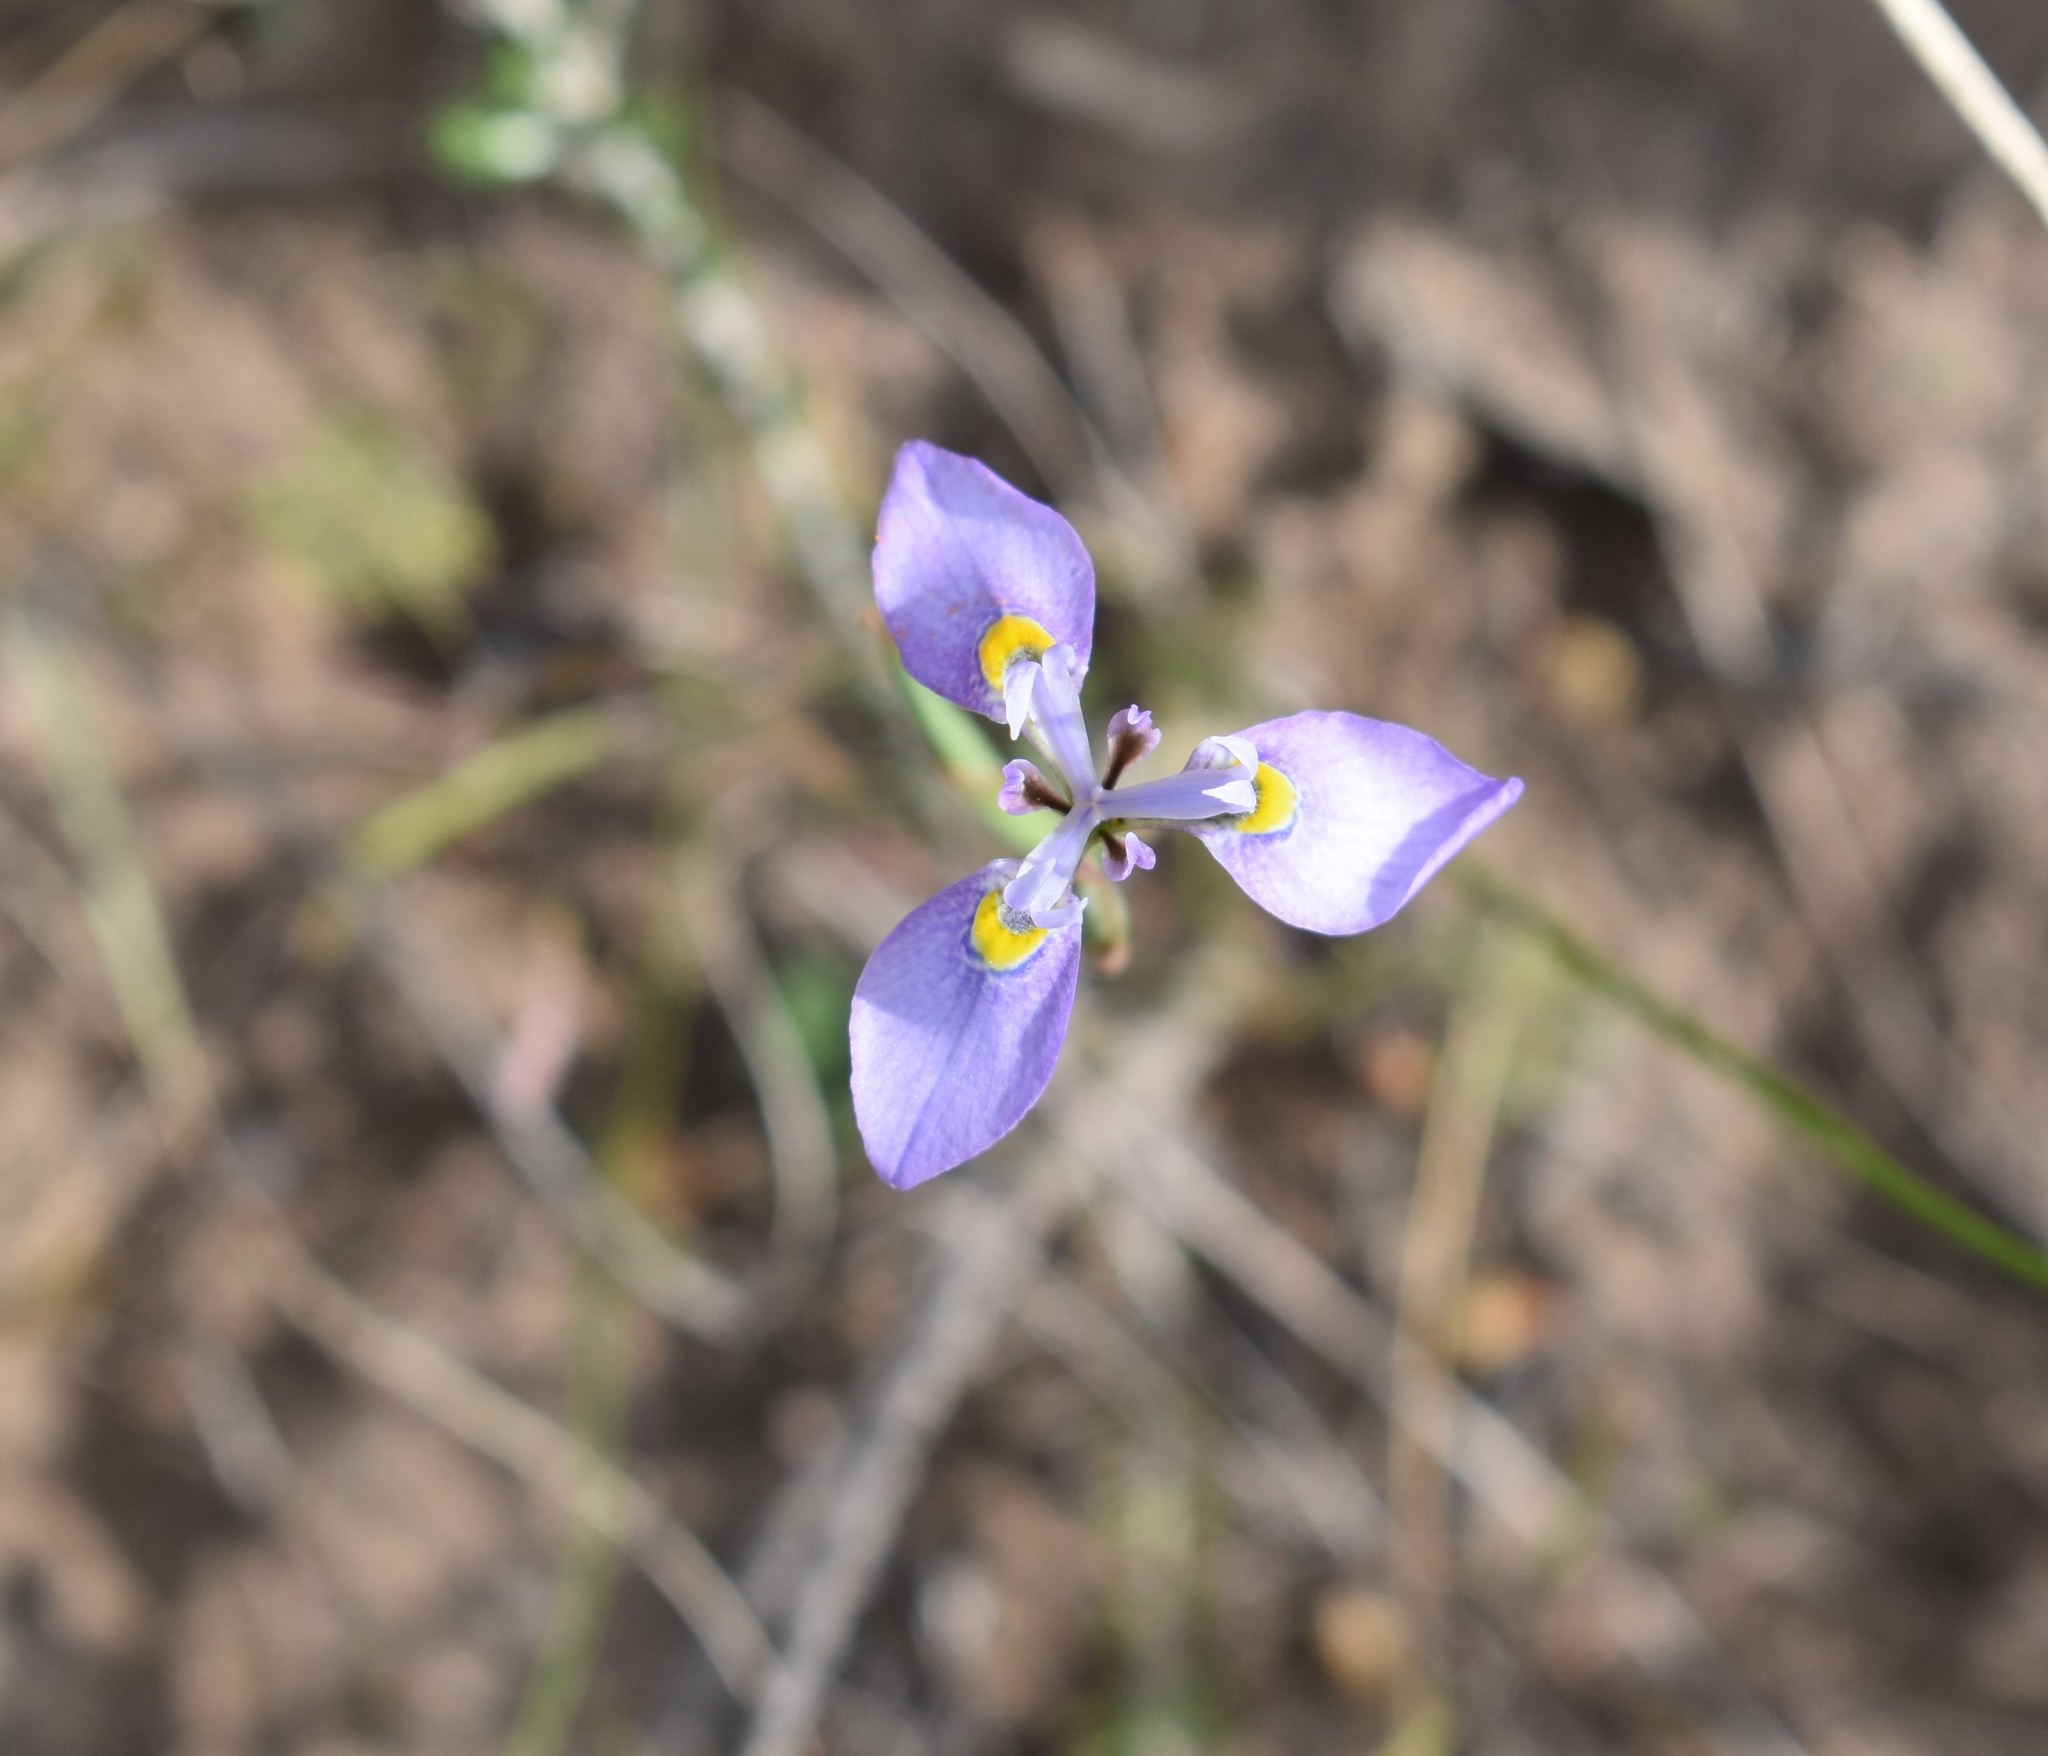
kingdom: Plantae
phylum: Tracheophyta
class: Liliopsida
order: Asparagales
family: Iridaceae
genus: Moraea
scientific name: Moraea algoensis
